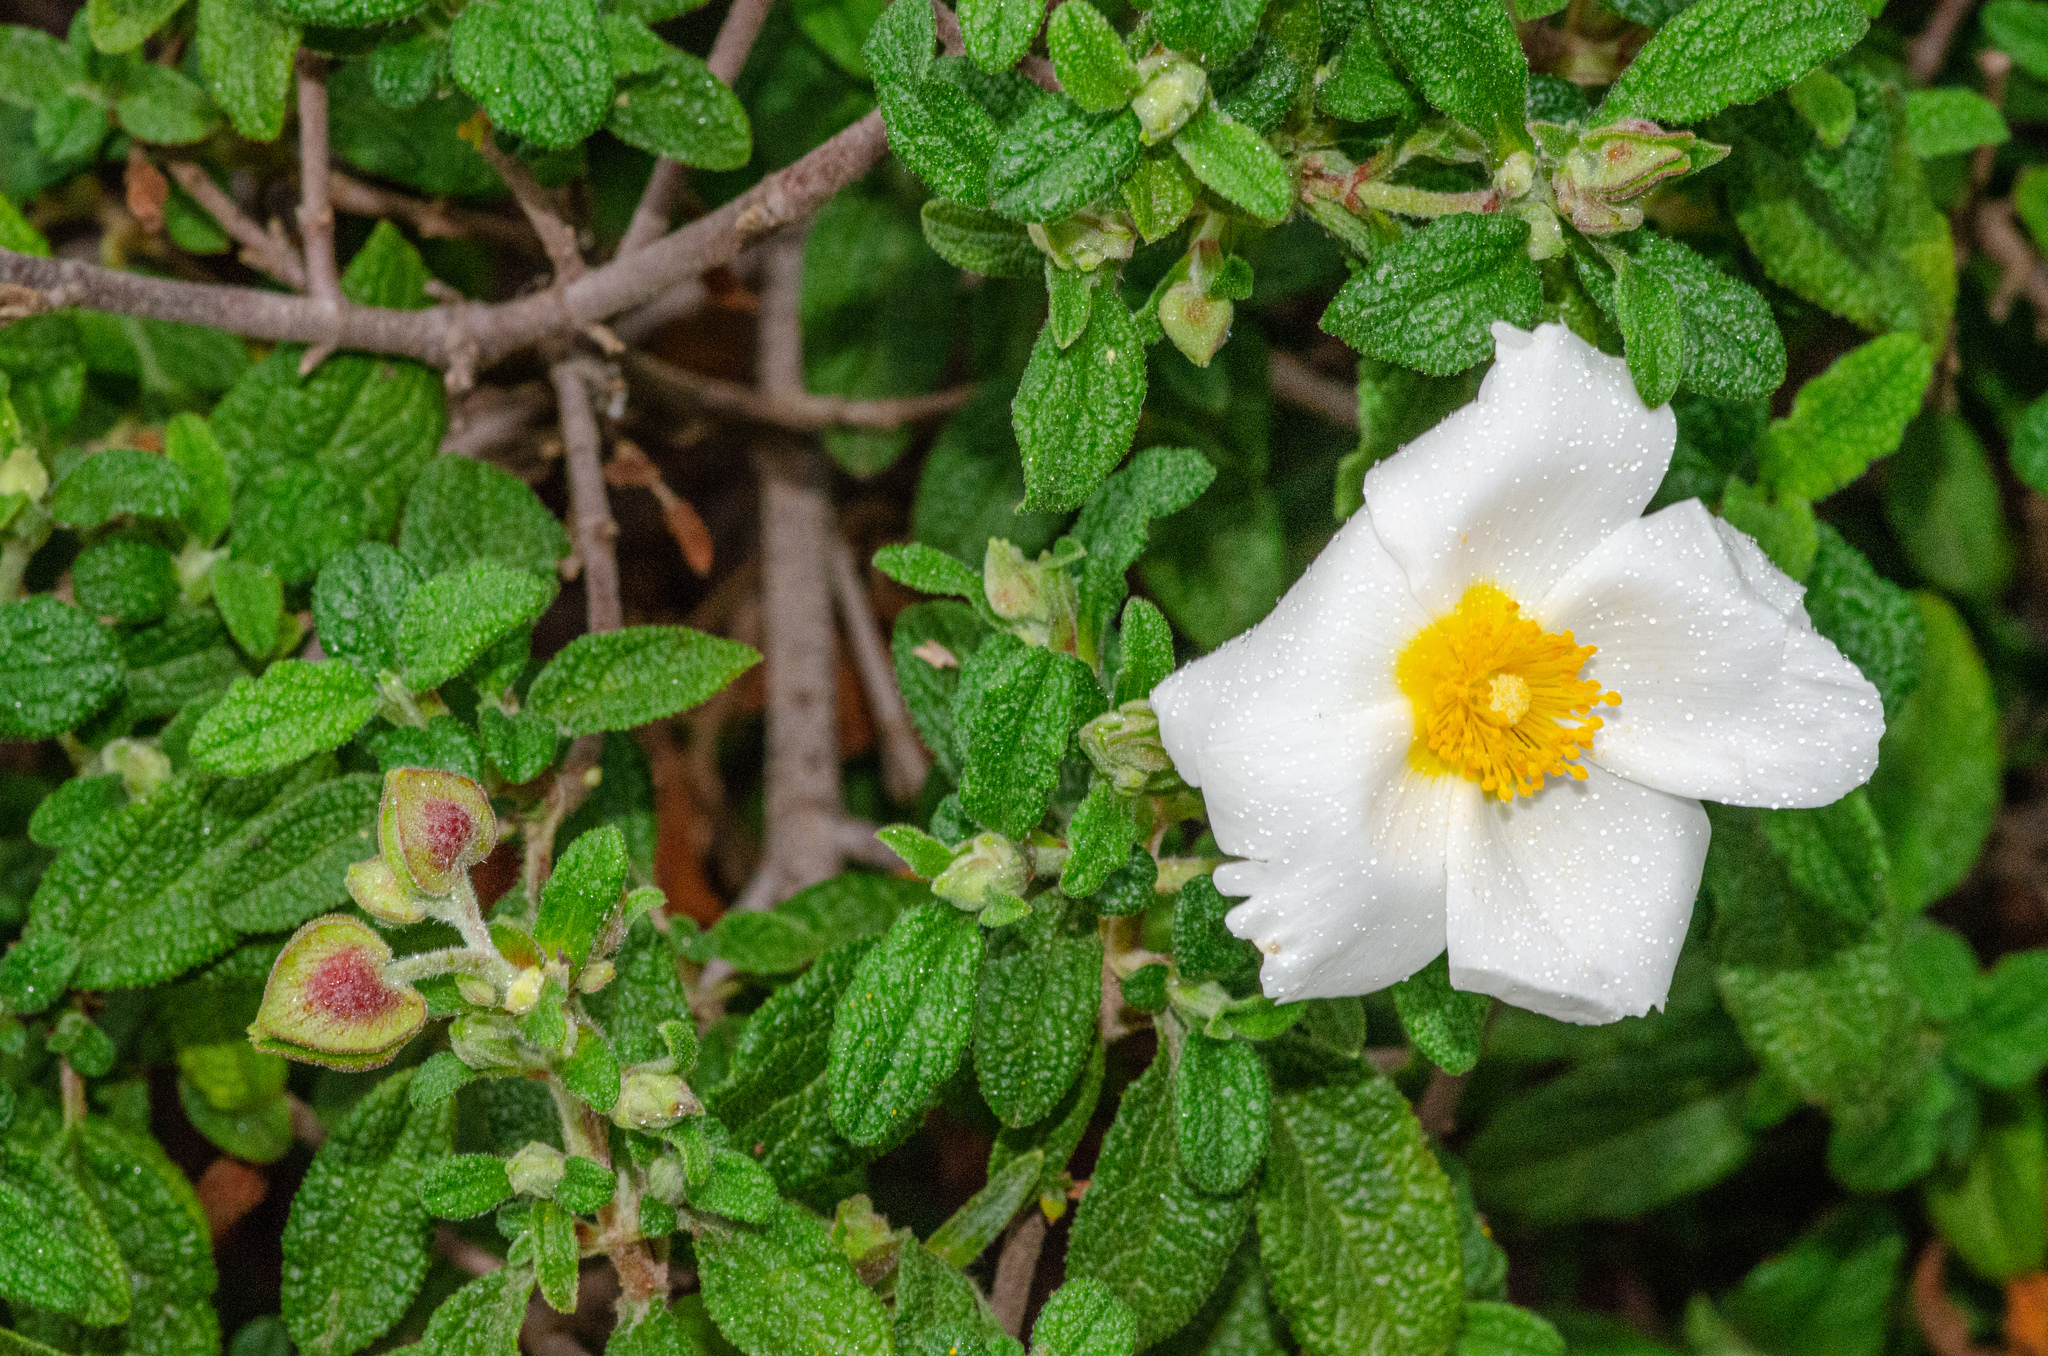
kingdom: Plantae
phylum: Tracheophyta
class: Magnoliopsida
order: Malvales
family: Cistaceae
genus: Cistus
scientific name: Cistus salviifolius
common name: Salvia cistus
